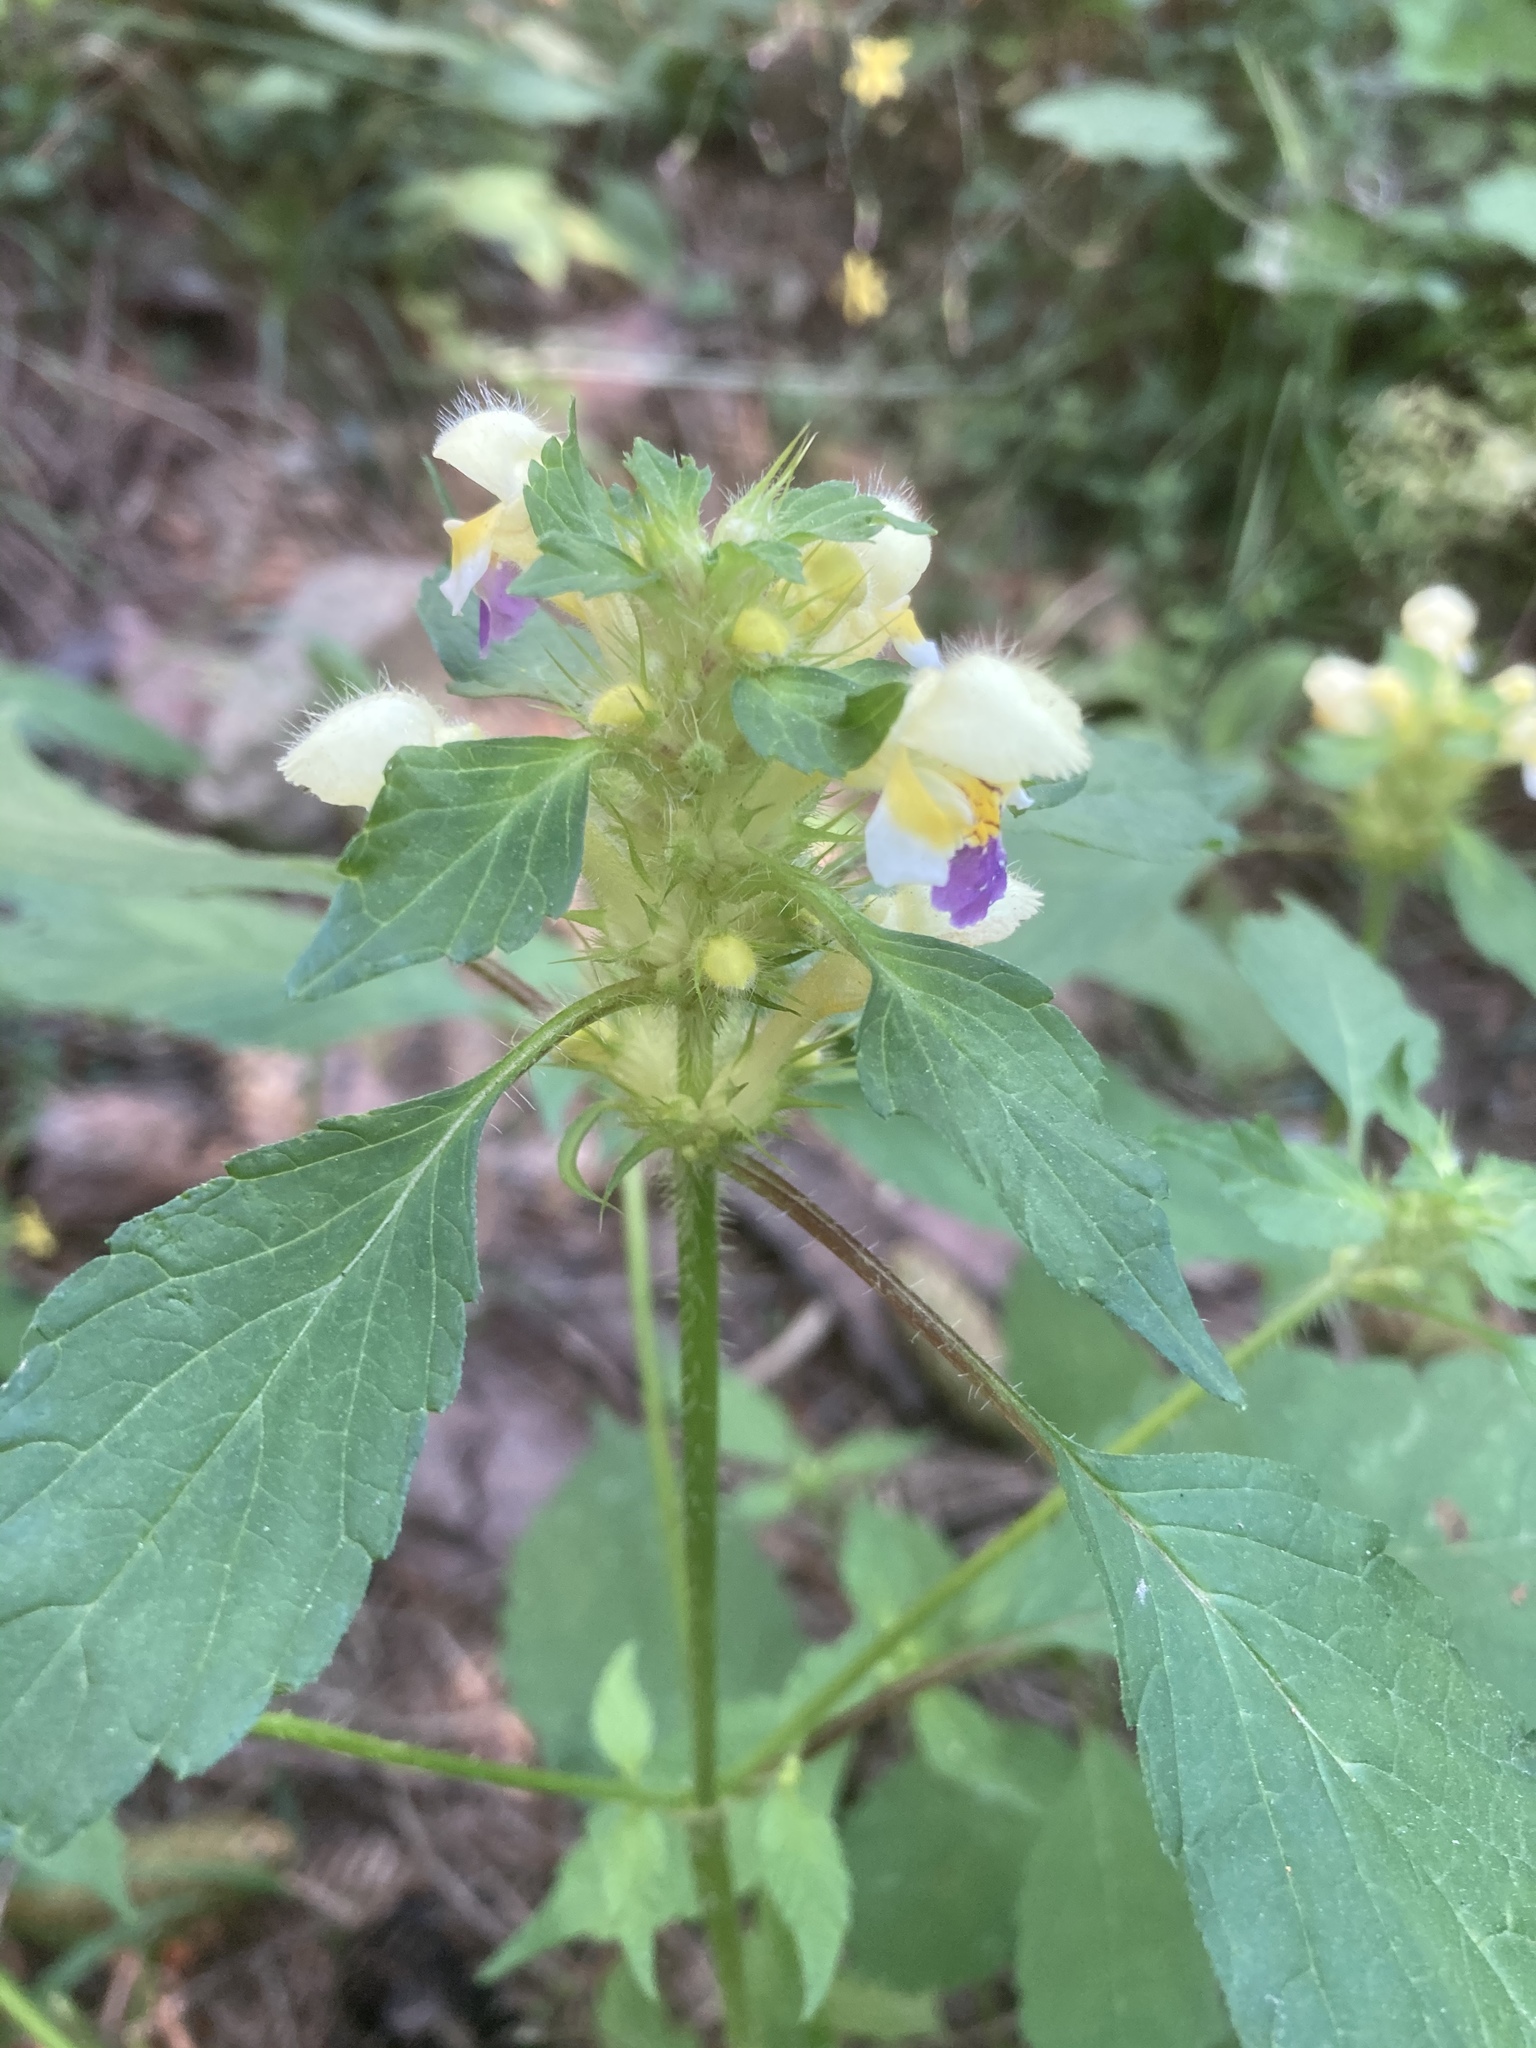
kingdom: Plantae
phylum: Tracheophyta
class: Magnoliopsida
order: Lamiales
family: Lamiaceae
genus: Galeopsis
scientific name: Galeopsis speciosa
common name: Large-flowered hemp-nettle
